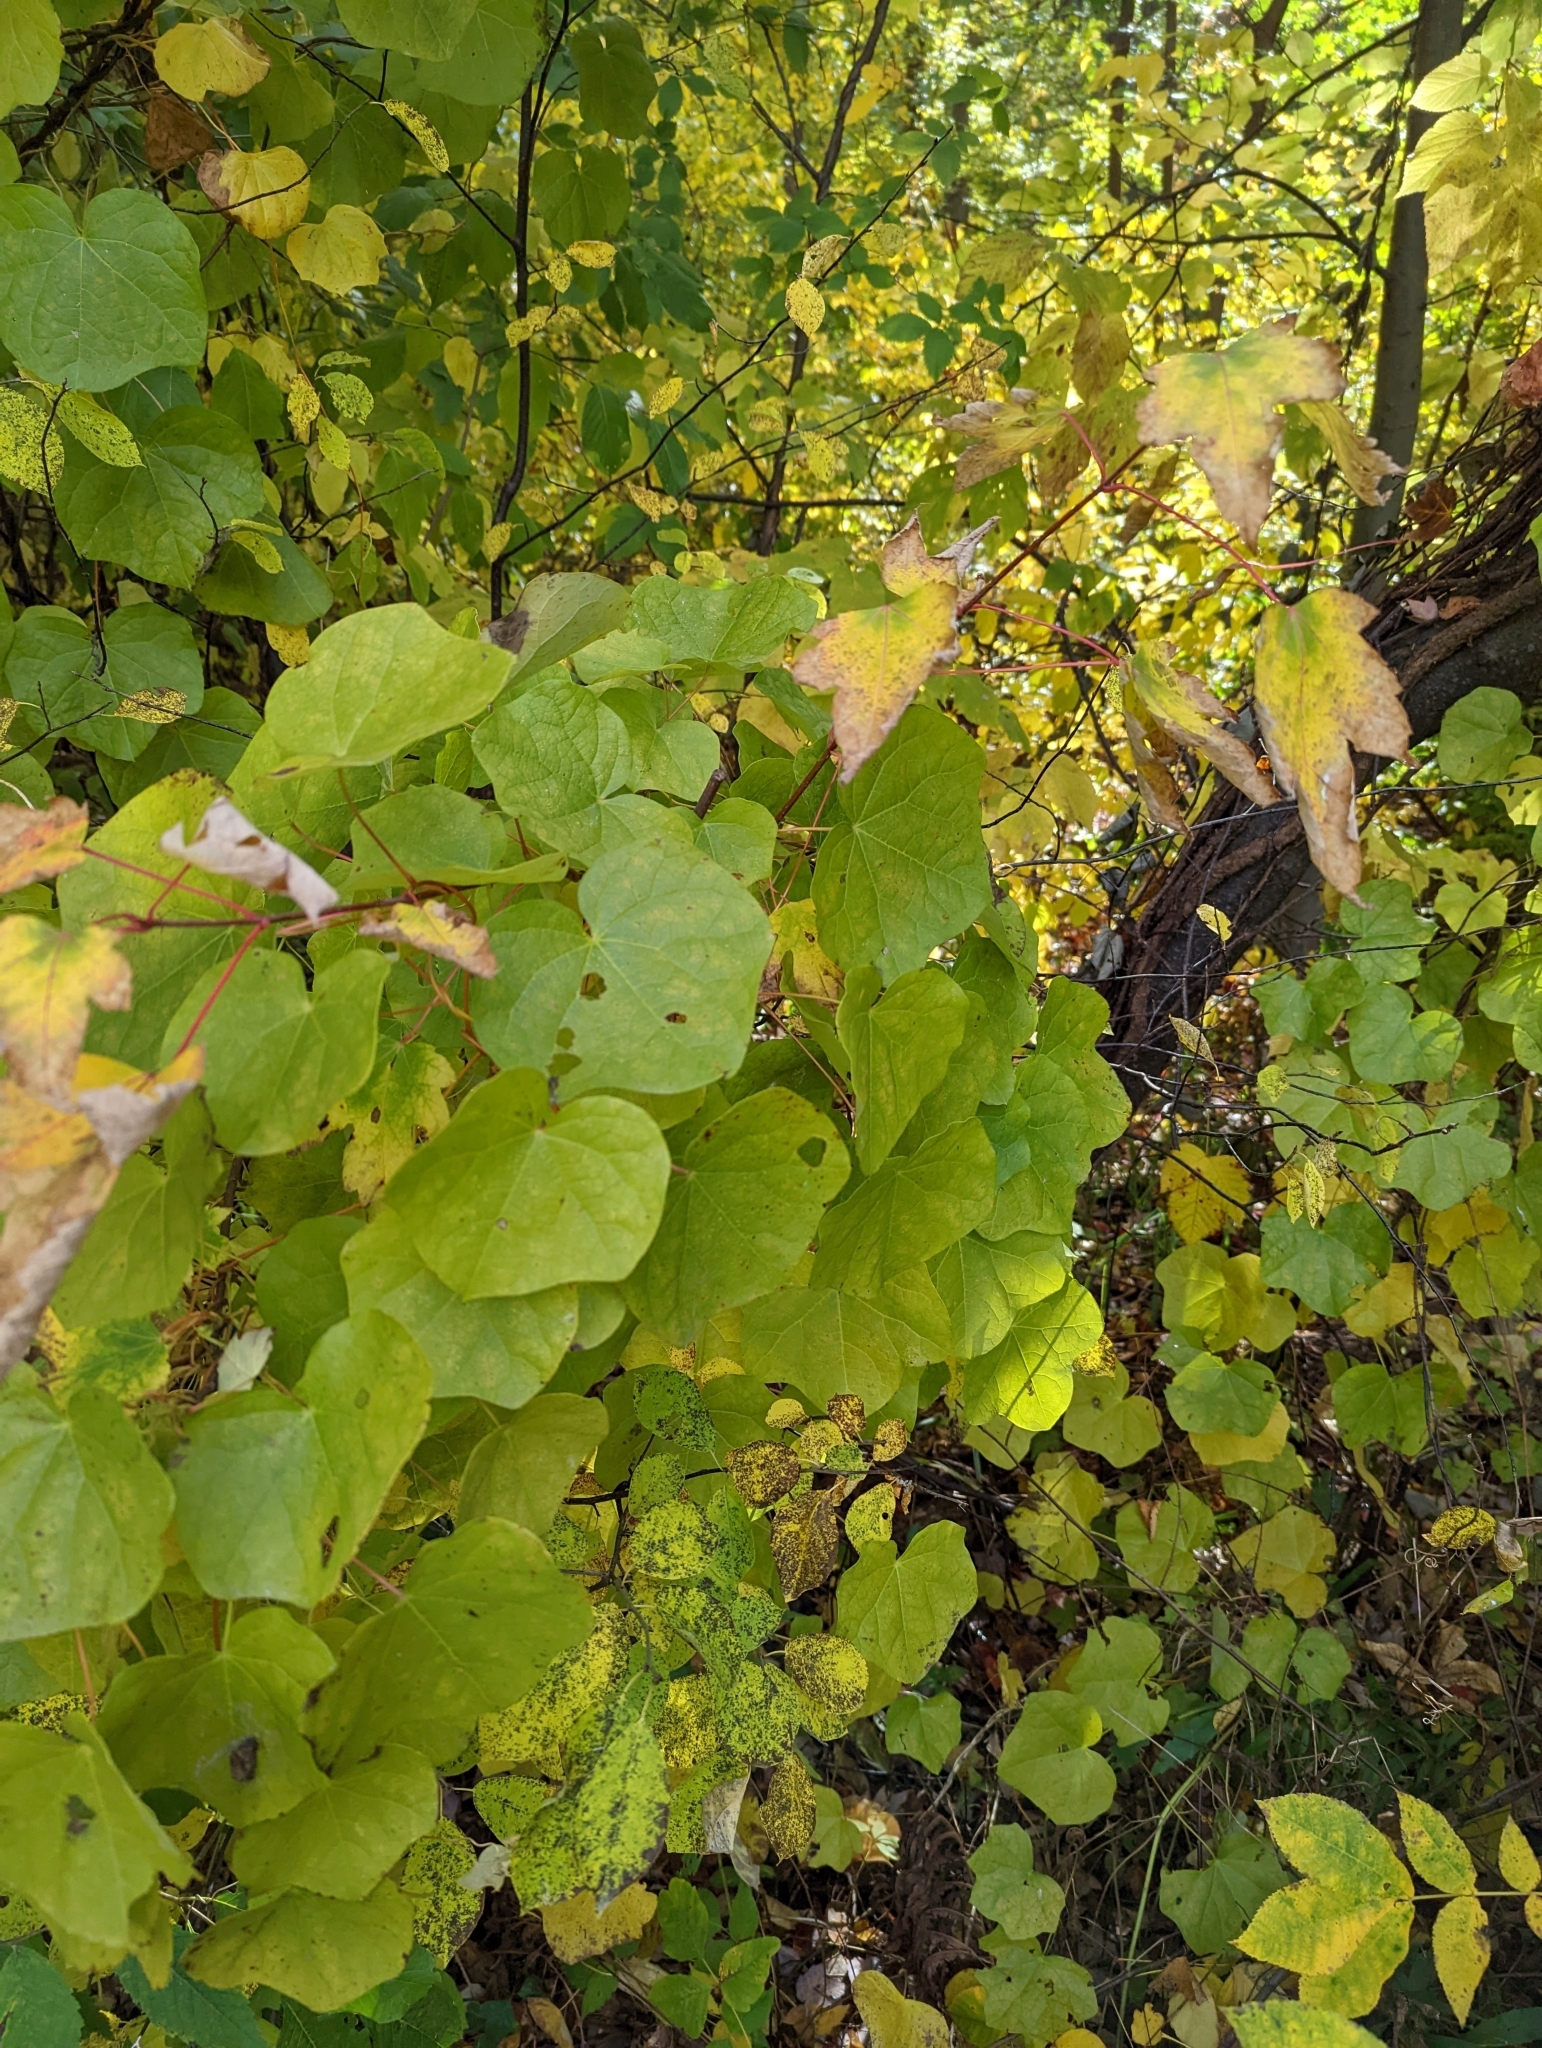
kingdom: Plantae
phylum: Tracheophyta
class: Magnoliopsida
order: Ranunculales
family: Menispermaceae
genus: Menispermum
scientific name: Menispermum canadense
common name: Moonseed
